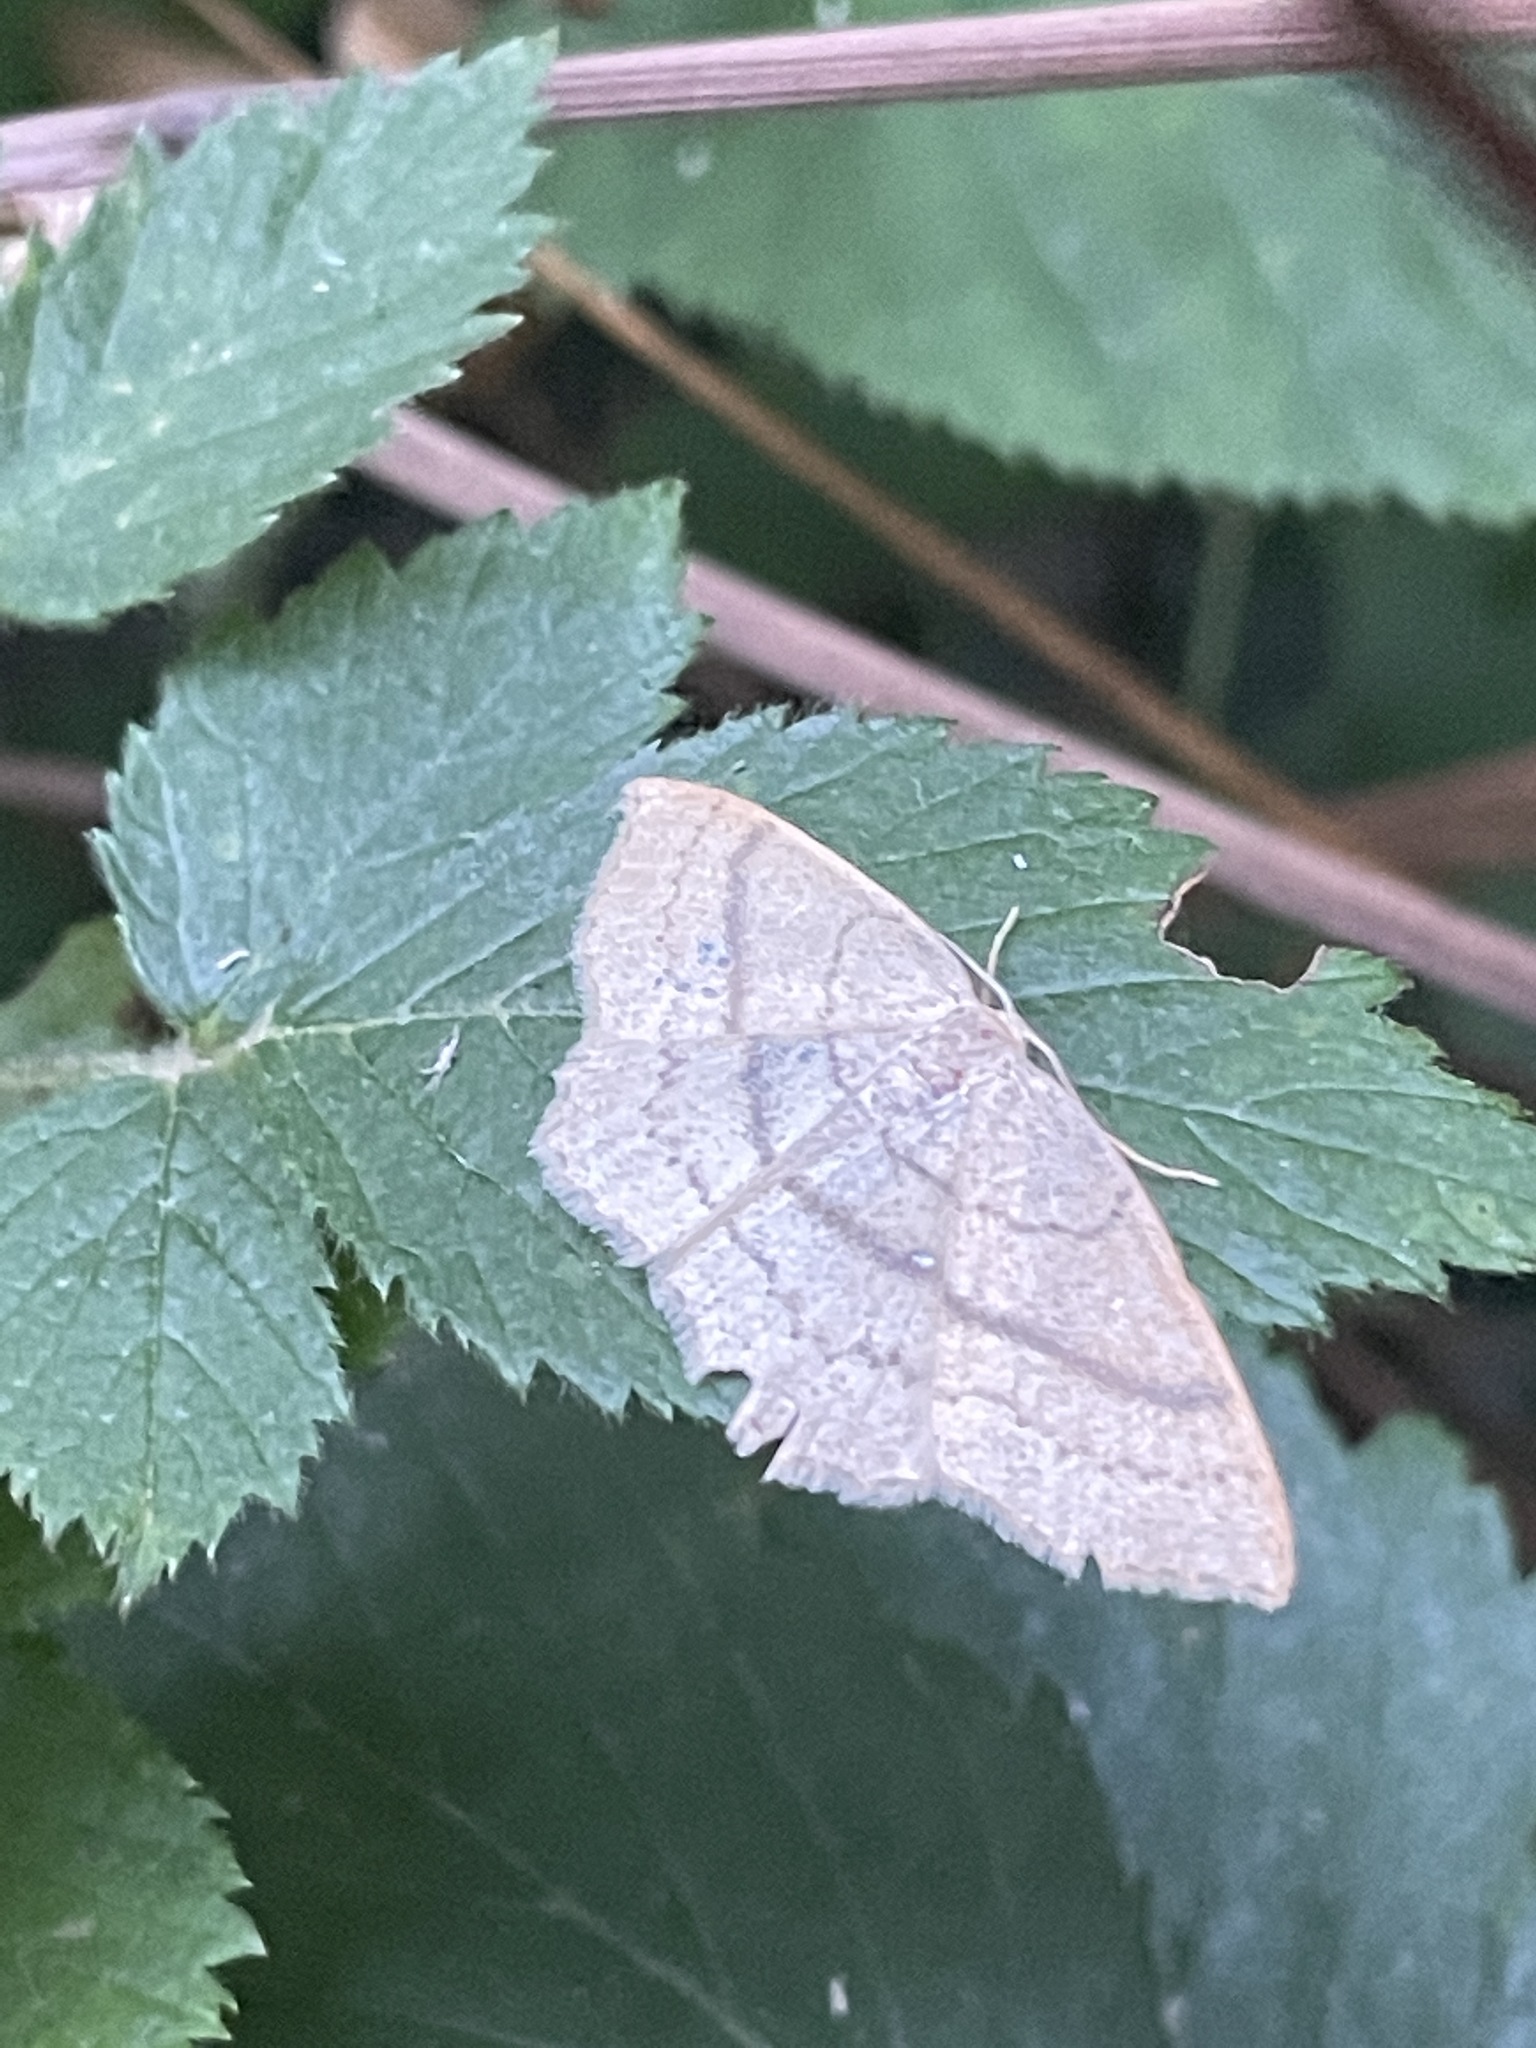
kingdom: Animalia
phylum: Arthropoda
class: Insecta
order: Lepidoptera
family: Geometridae
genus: Cyclophora
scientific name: Cyclophora linearia
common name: Clay triple-lines
